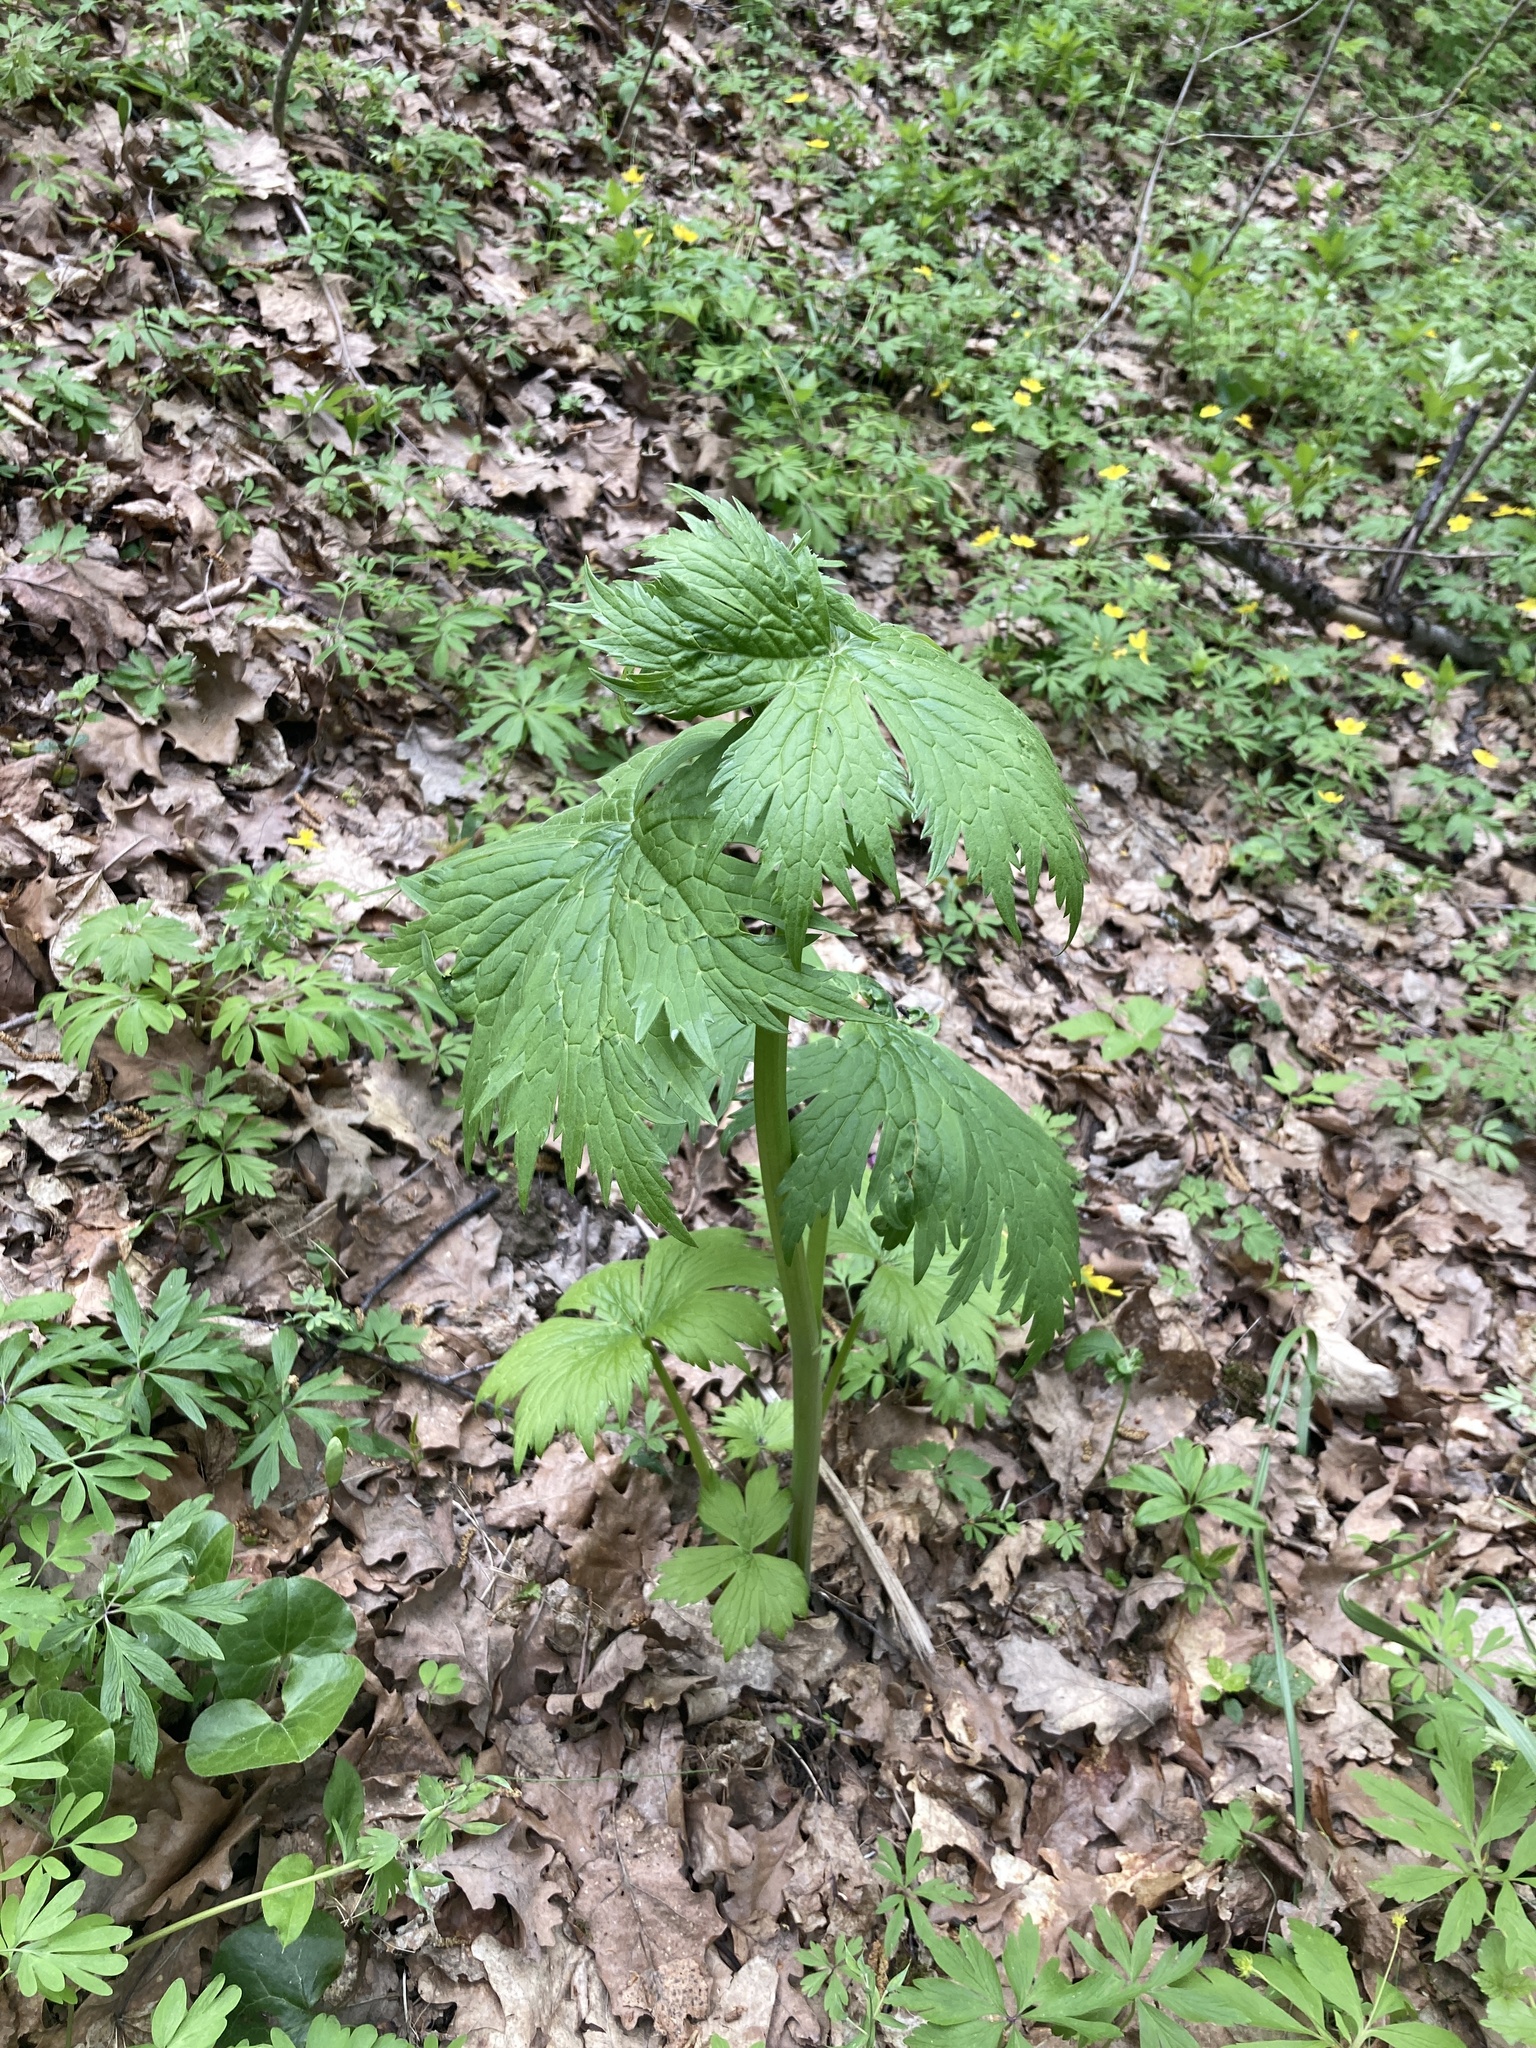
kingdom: Plantae
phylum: Tracheophyta
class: Magnoliopsida
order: Ranunculales
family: Ranunculaceae
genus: Aconitum
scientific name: Aconitum septentrionale
